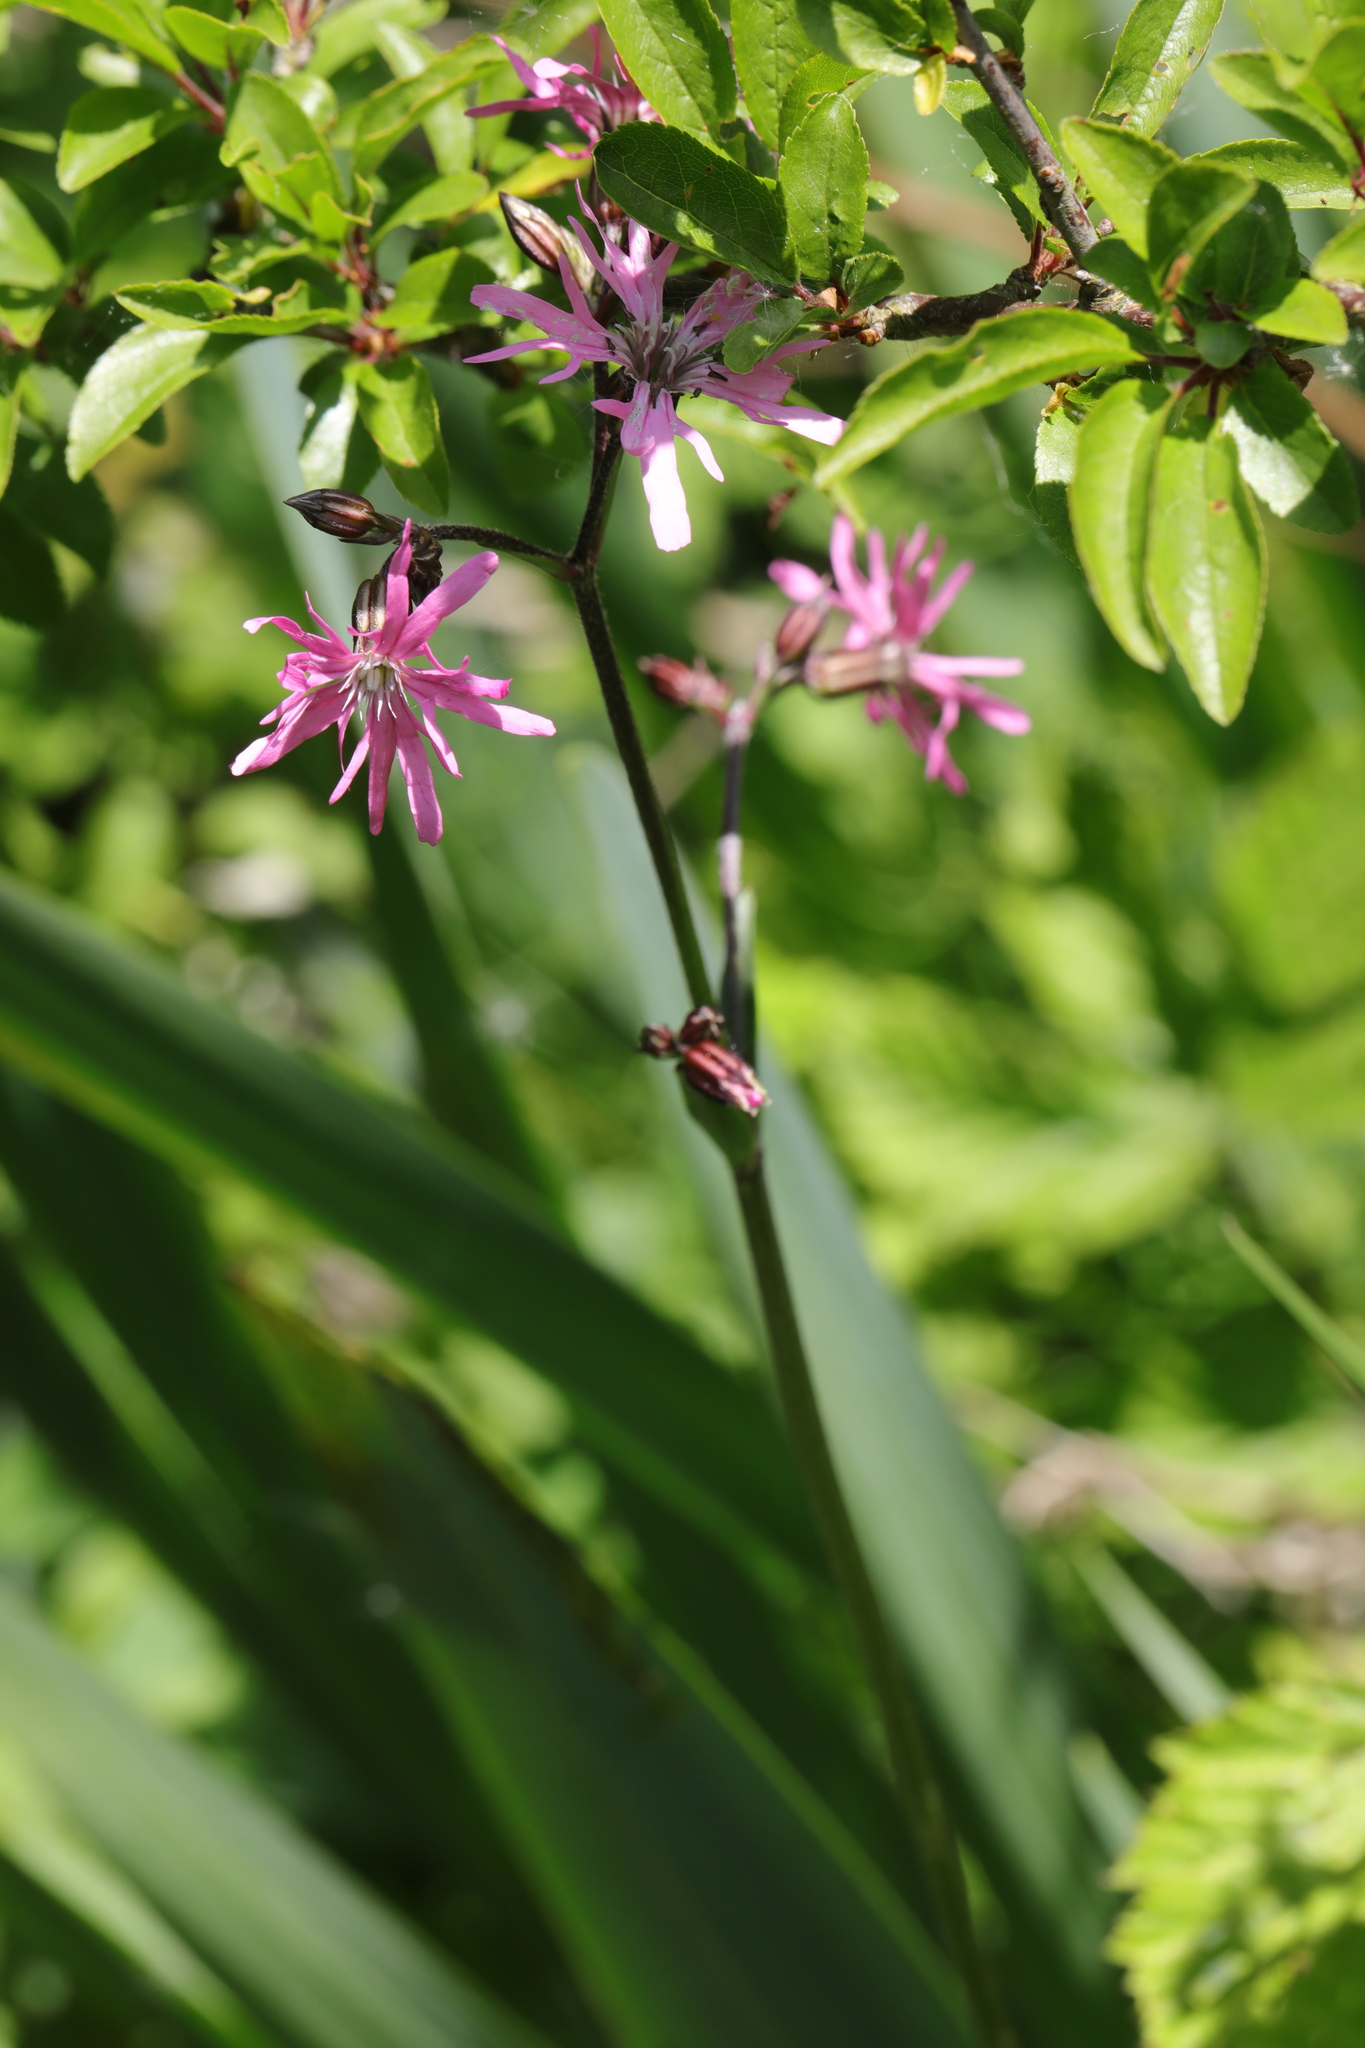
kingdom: Plantae
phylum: Tracheophyta
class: Magnoliopsida
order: Caryophyllales
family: Caryophyllaceae
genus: Silene
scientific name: Silene flos-cuculi
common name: Ragged-robin
